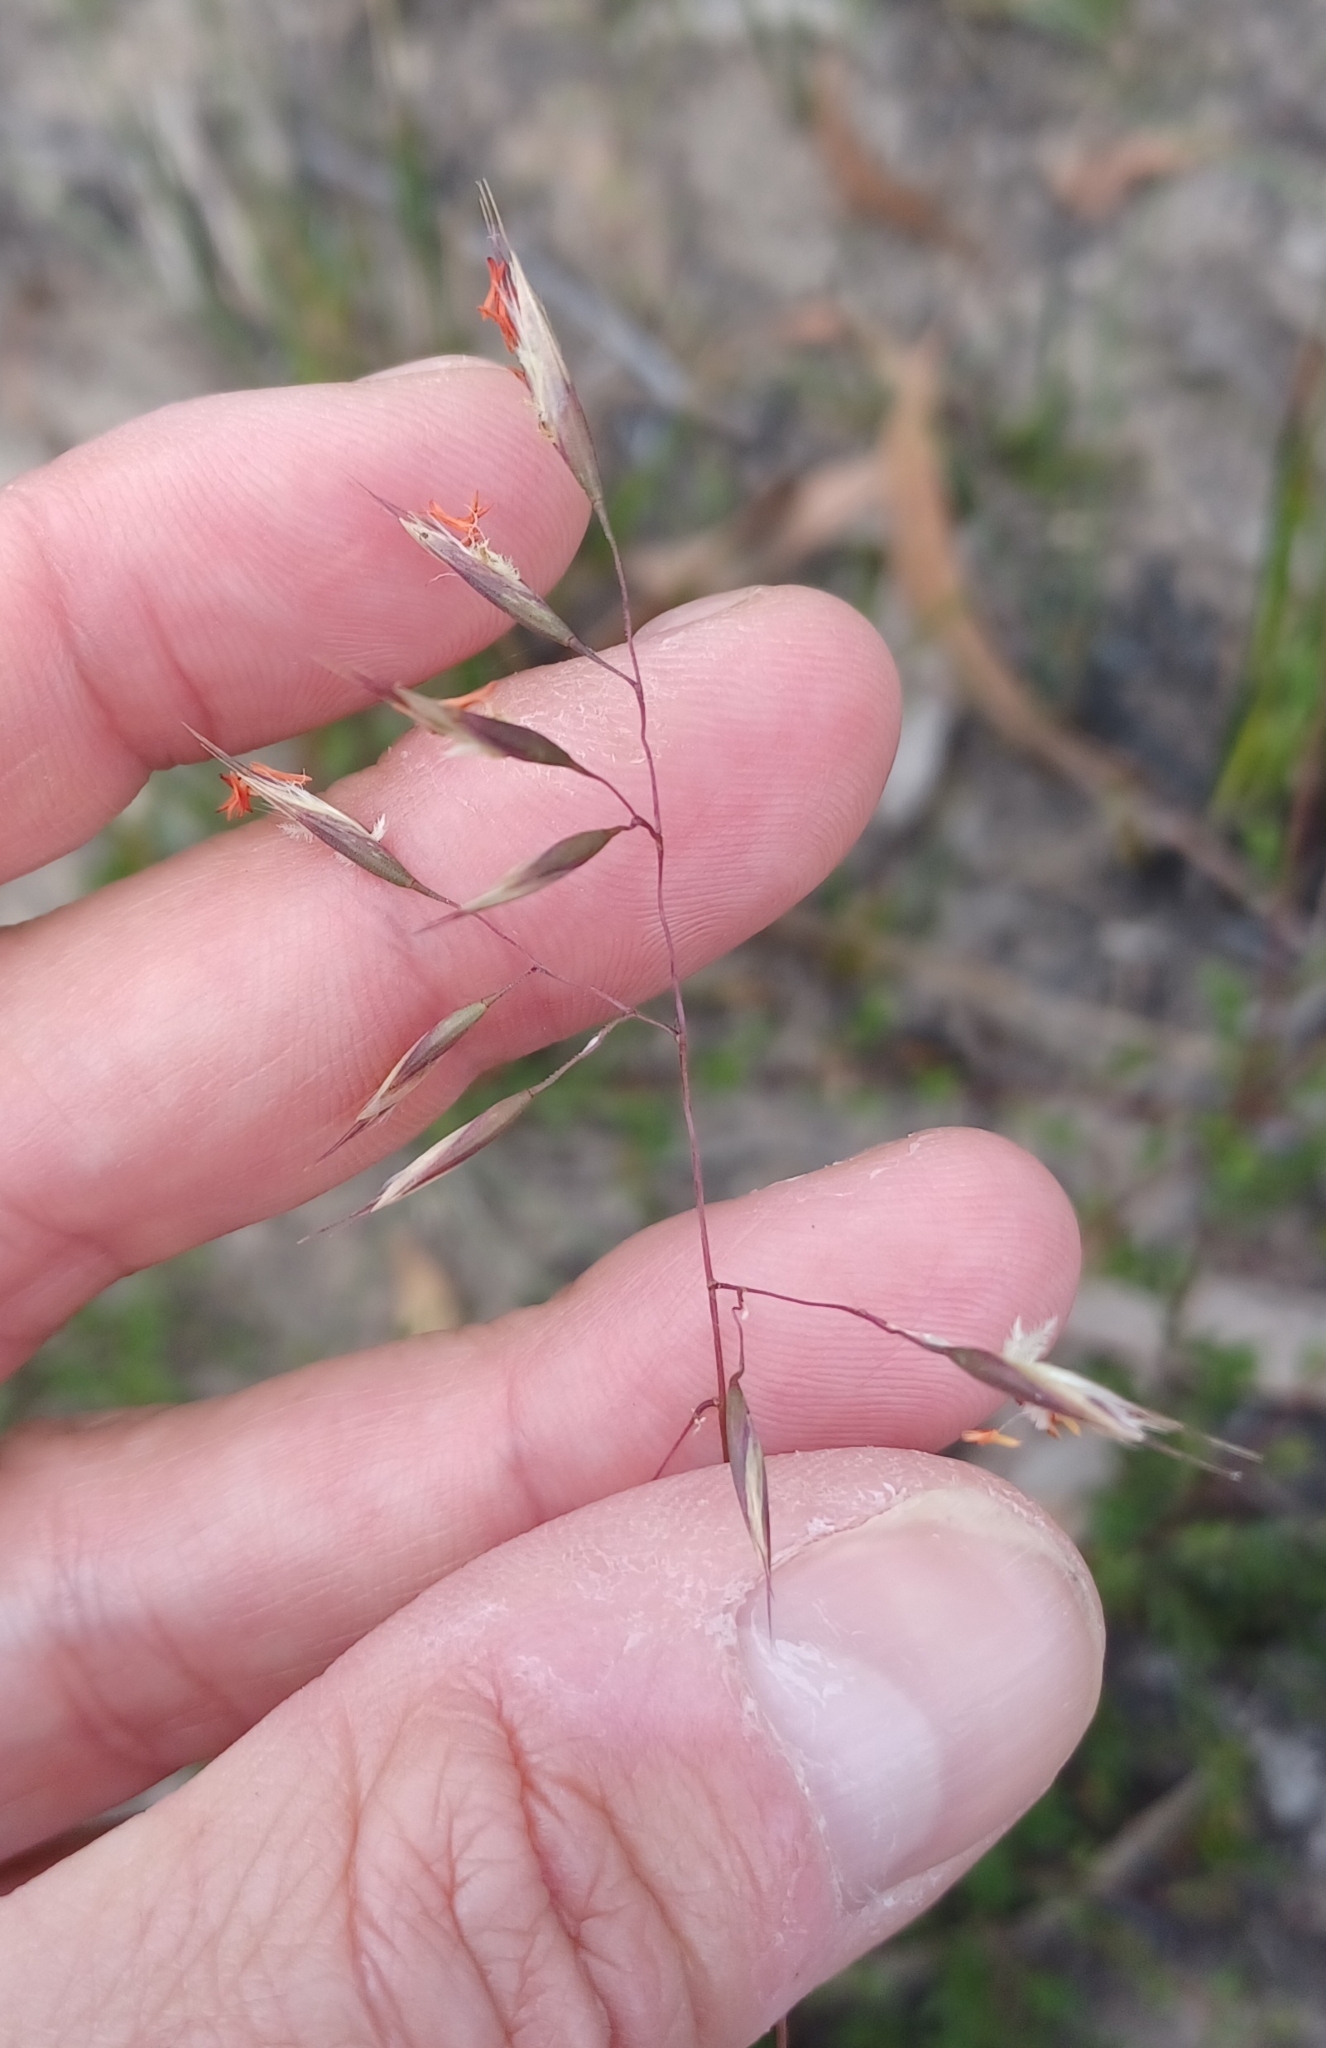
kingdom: Plantae
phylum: Tracheophyta
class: Liliopsida
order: Poales
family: Poaceae
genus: Rytidosperma
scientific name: Rytidosperma pallidum
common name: Red-anther wallaby grass
